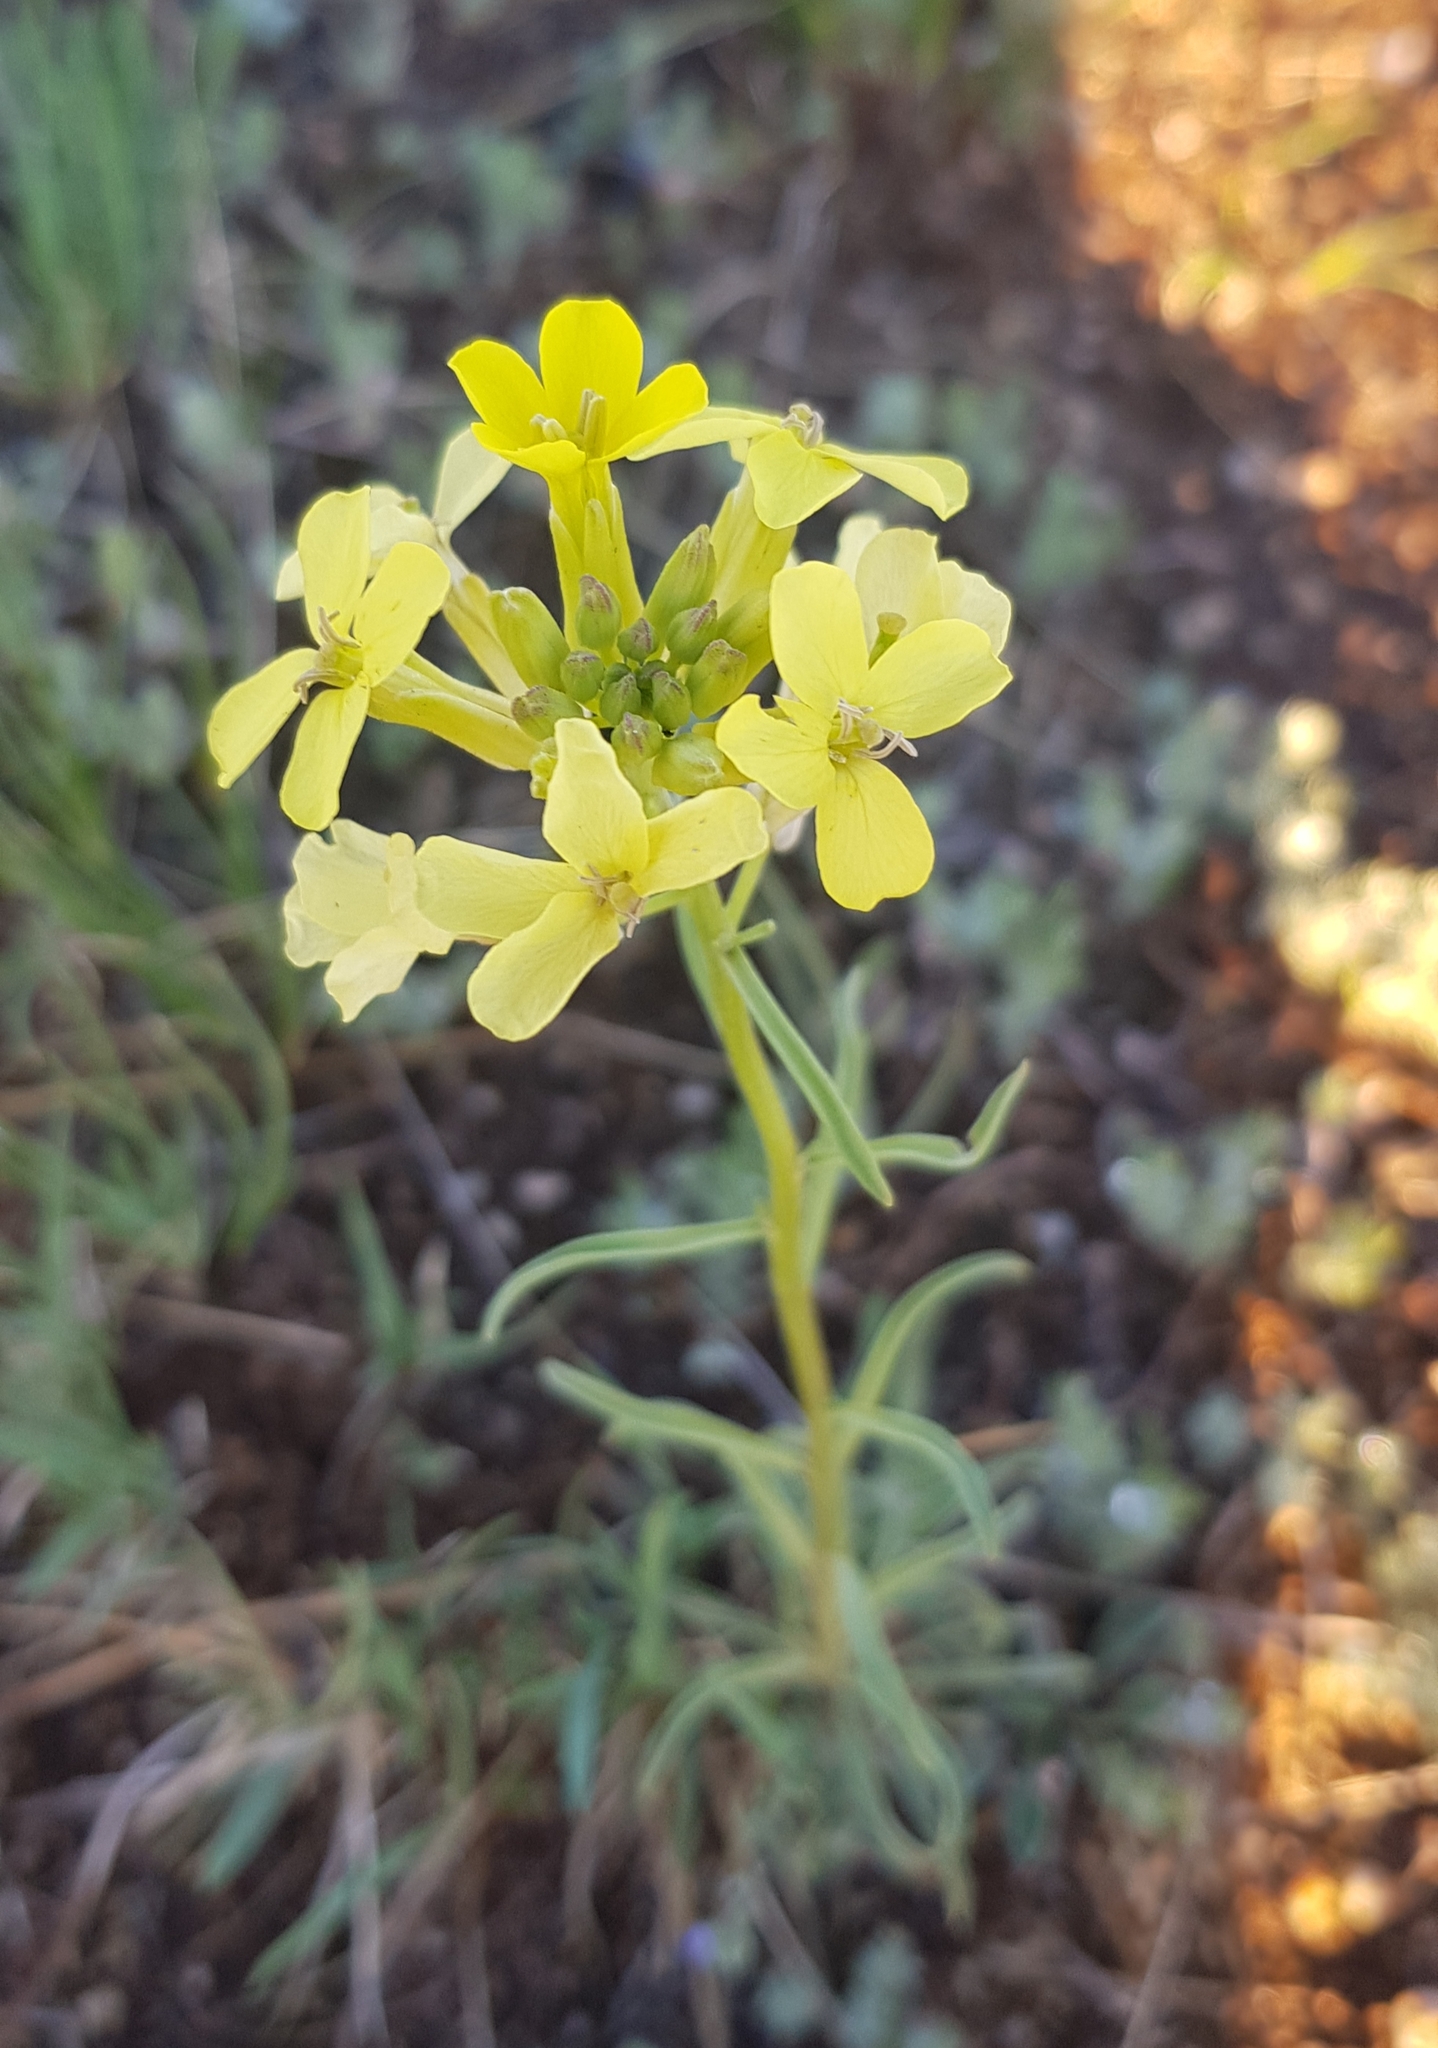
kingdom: Plantae
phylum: Tracheophyta
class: Magnoliopsida
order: Brassicales
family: Brassicaceae
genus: Erysimum
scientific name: Erysimum cheiranthoides
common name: Treacle mustard
